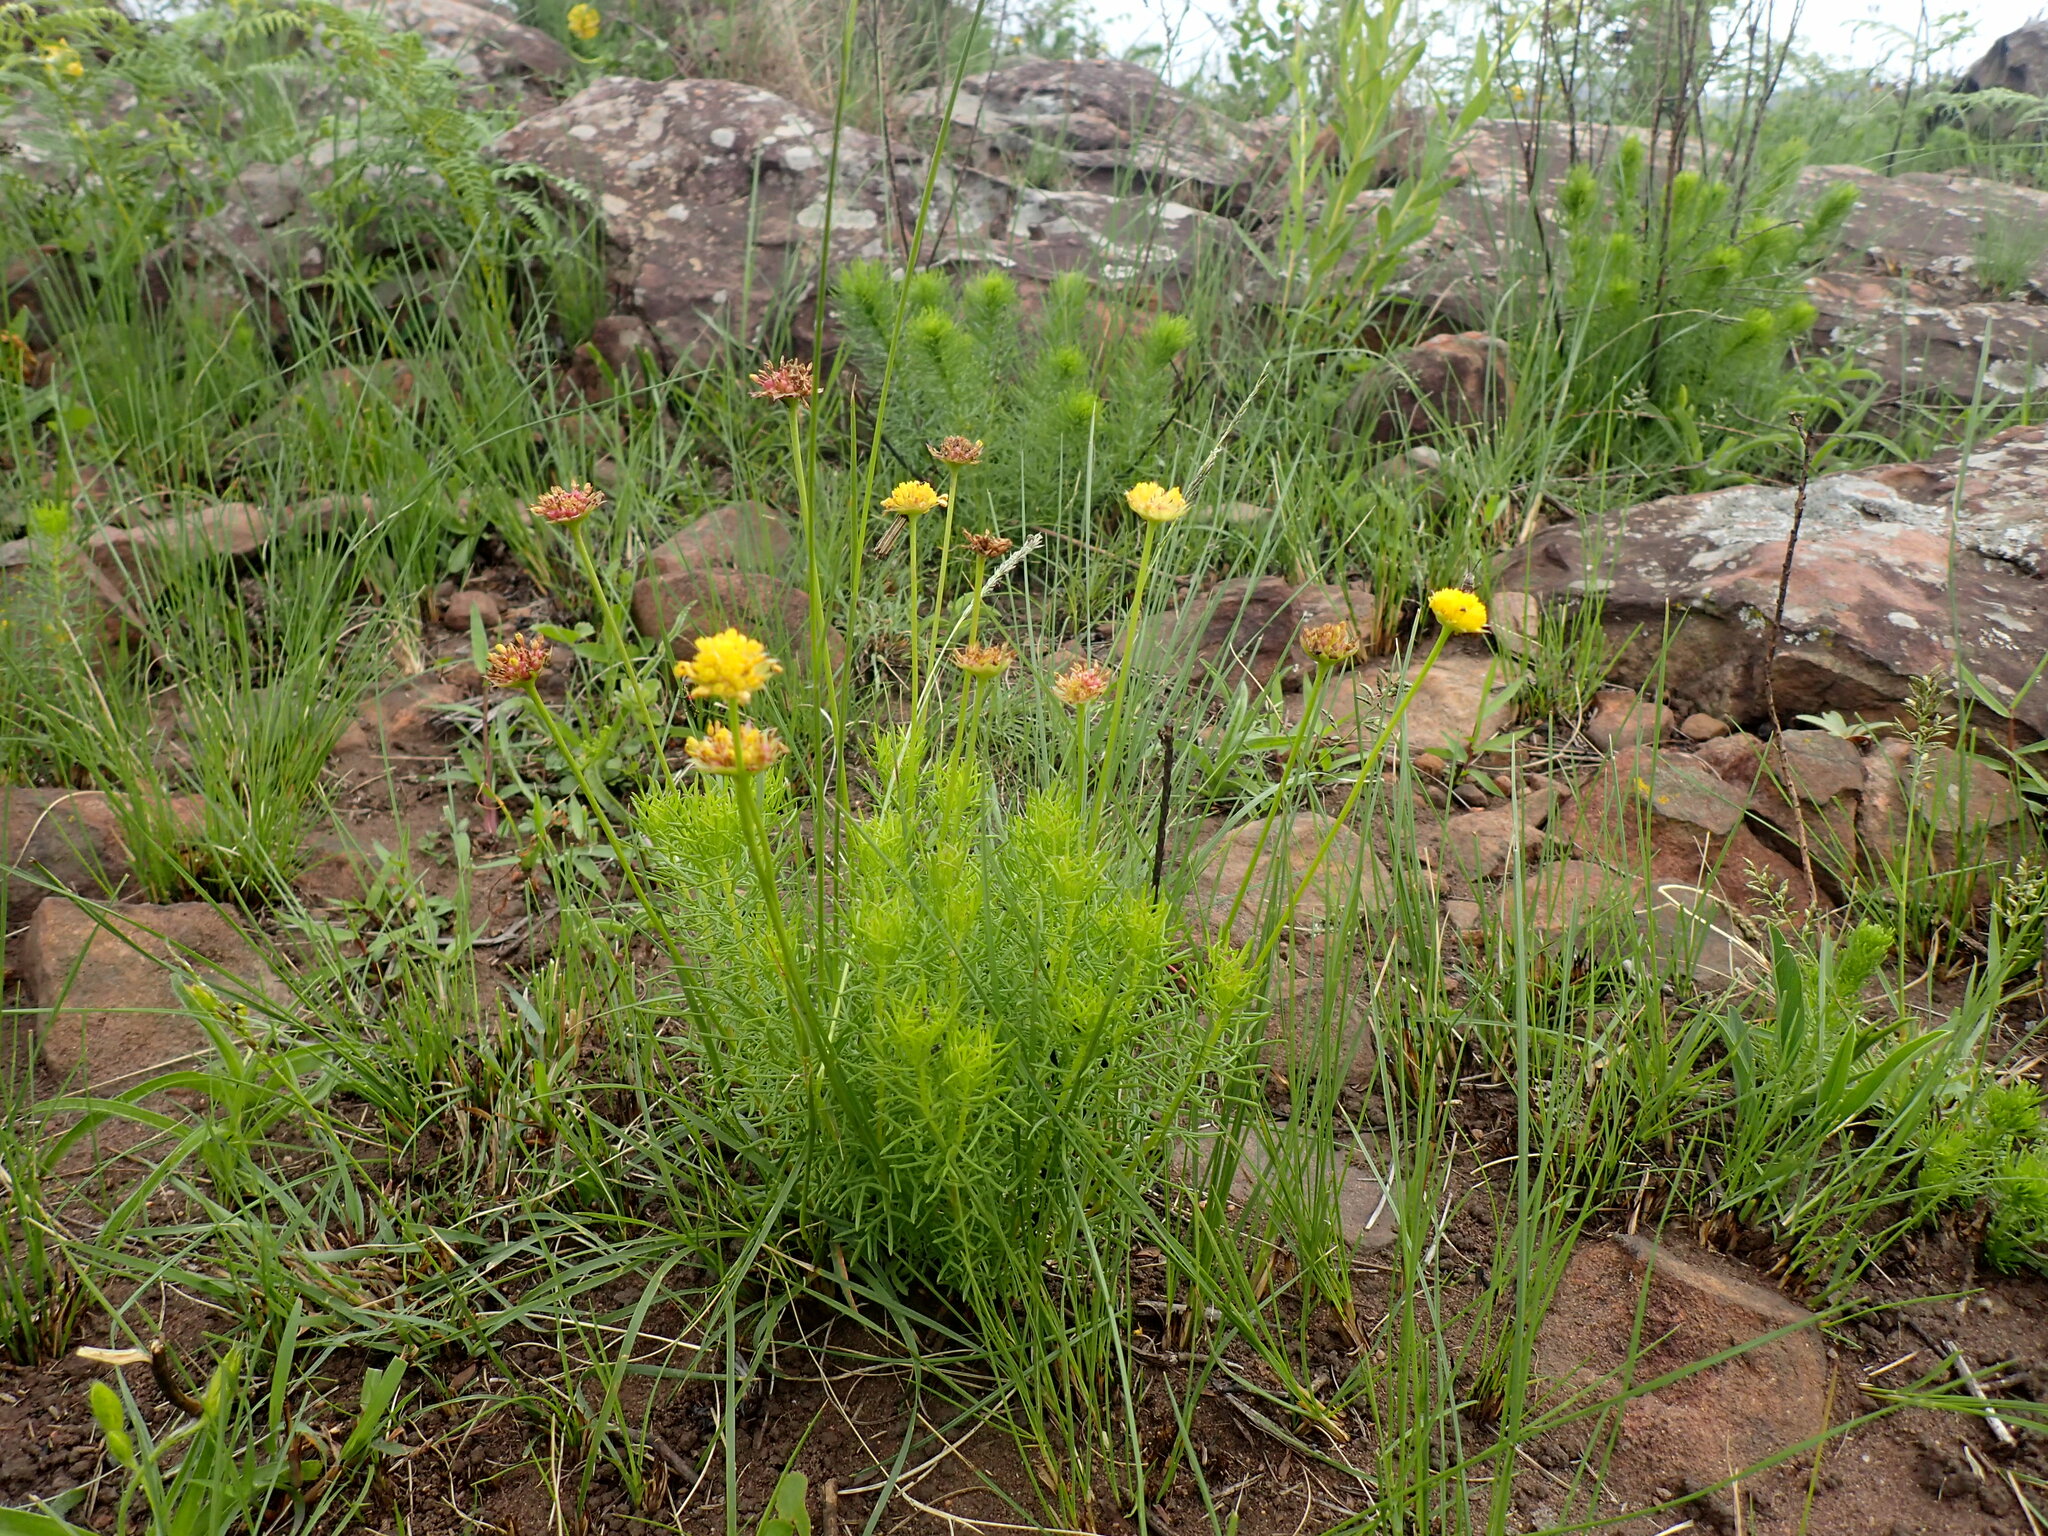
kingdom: Plantae
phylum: Tracheophyta
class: Magnoliopsida
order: Asterales
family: Asteraceae
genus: Ursinia
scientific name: Ursinia saxatilis
